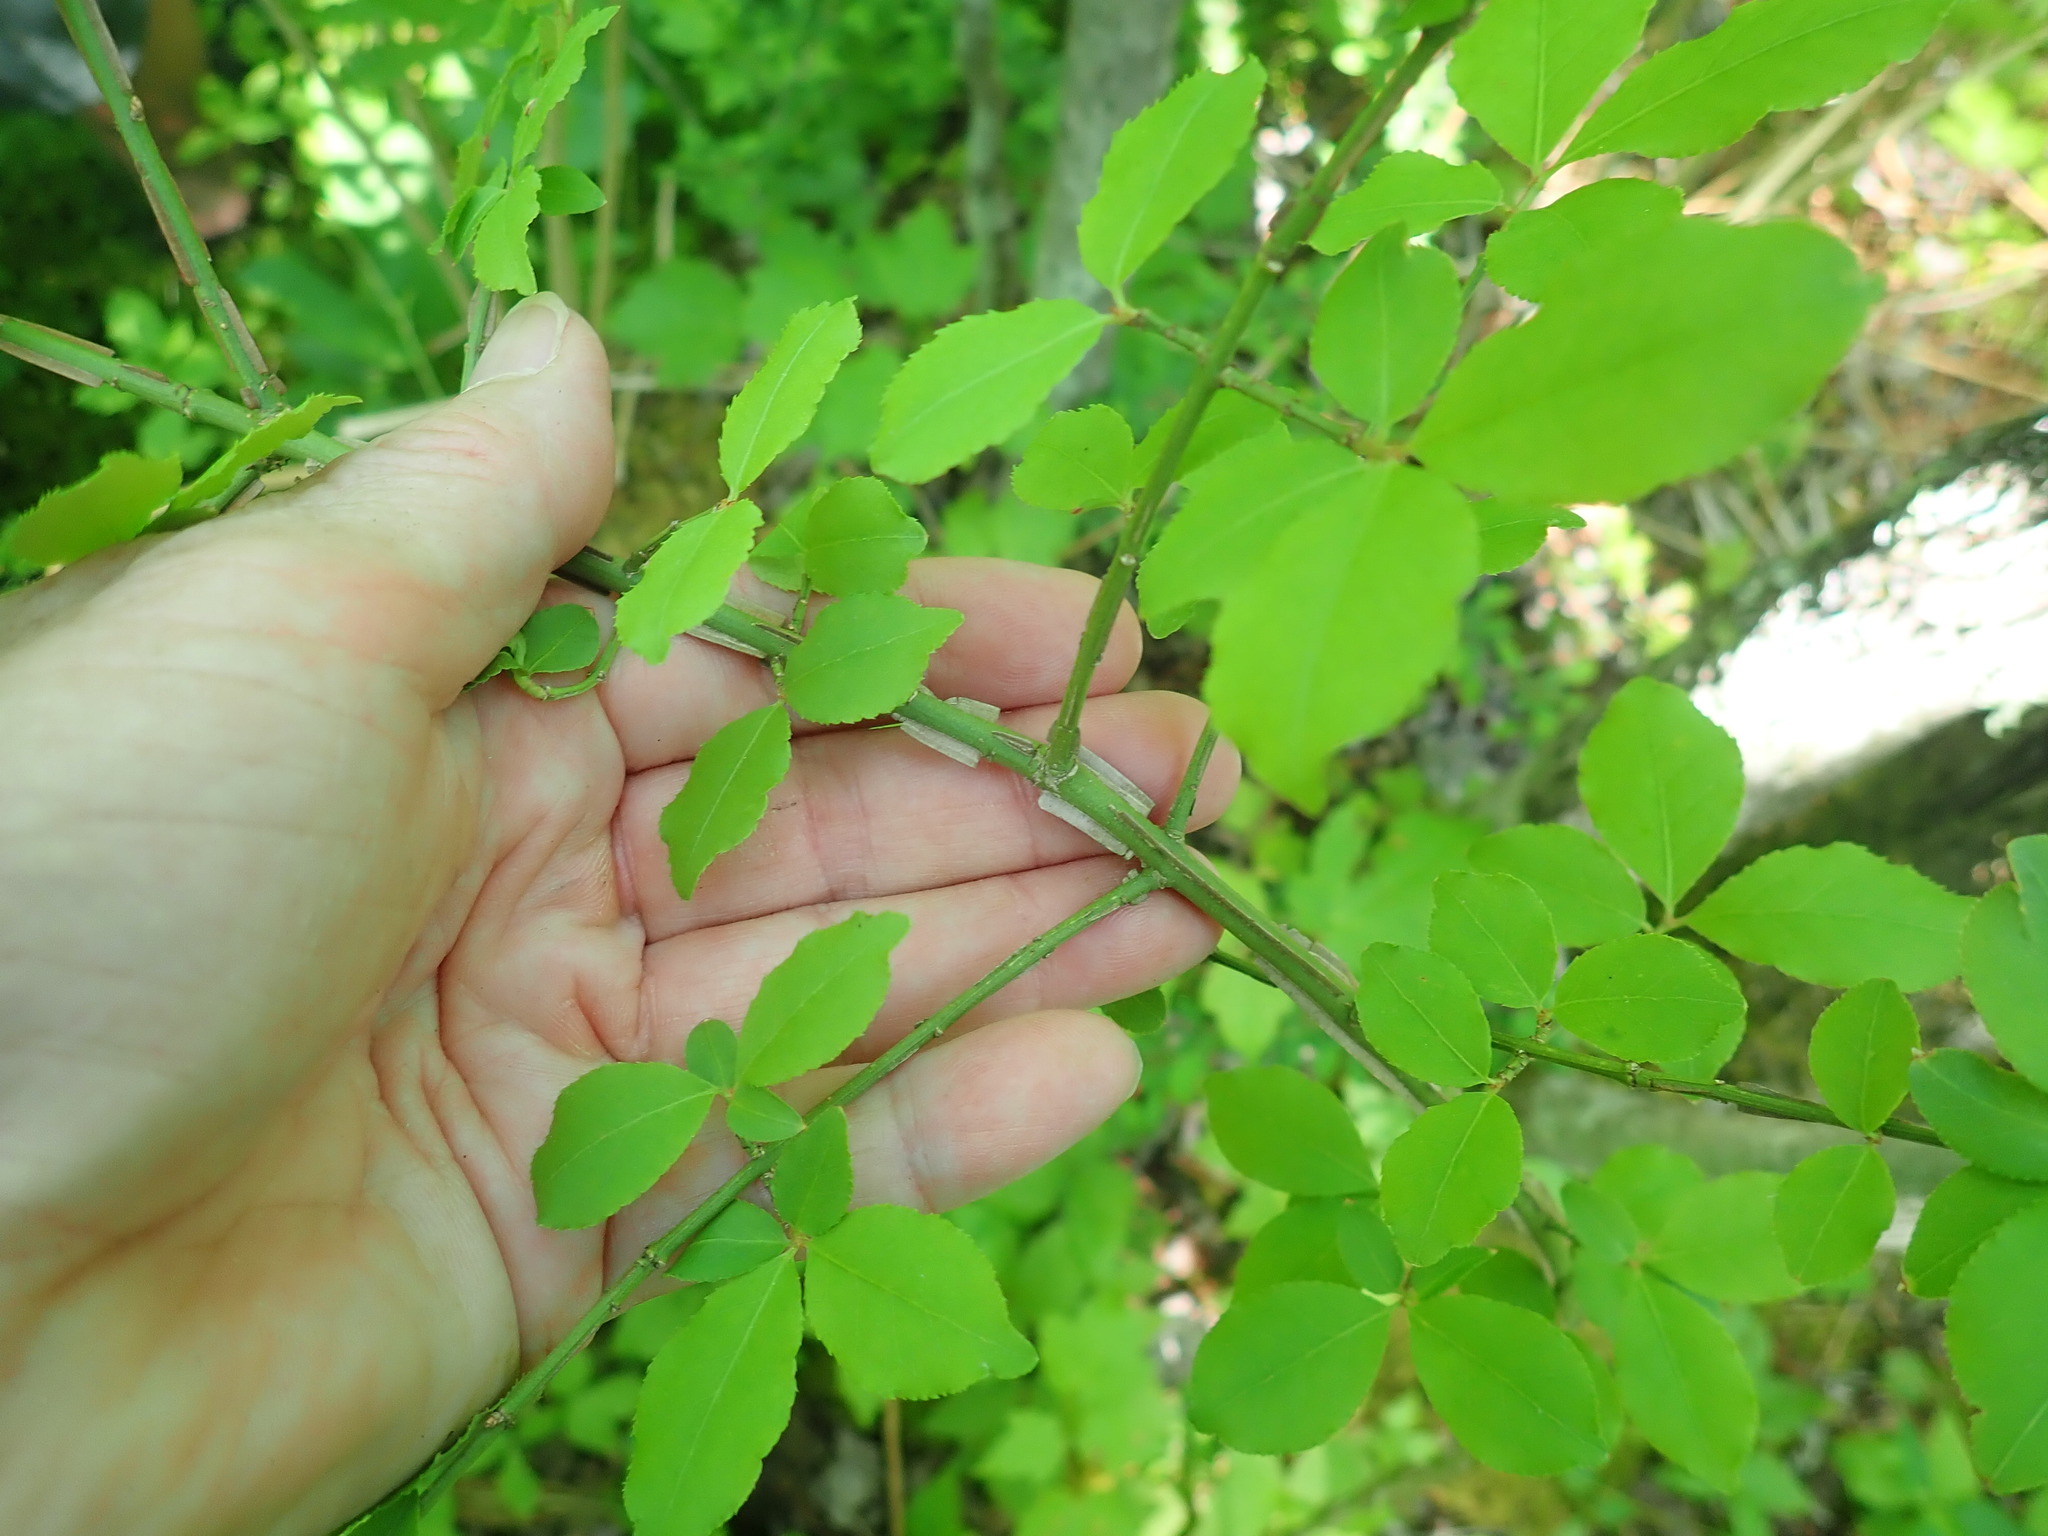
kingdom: Plantae
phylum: Tracheophyta
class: Magnoliopsida
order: Celastrales
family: Celastraceae
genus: Euonymus
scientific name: Euonymus alatus
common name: Winged euonymus
